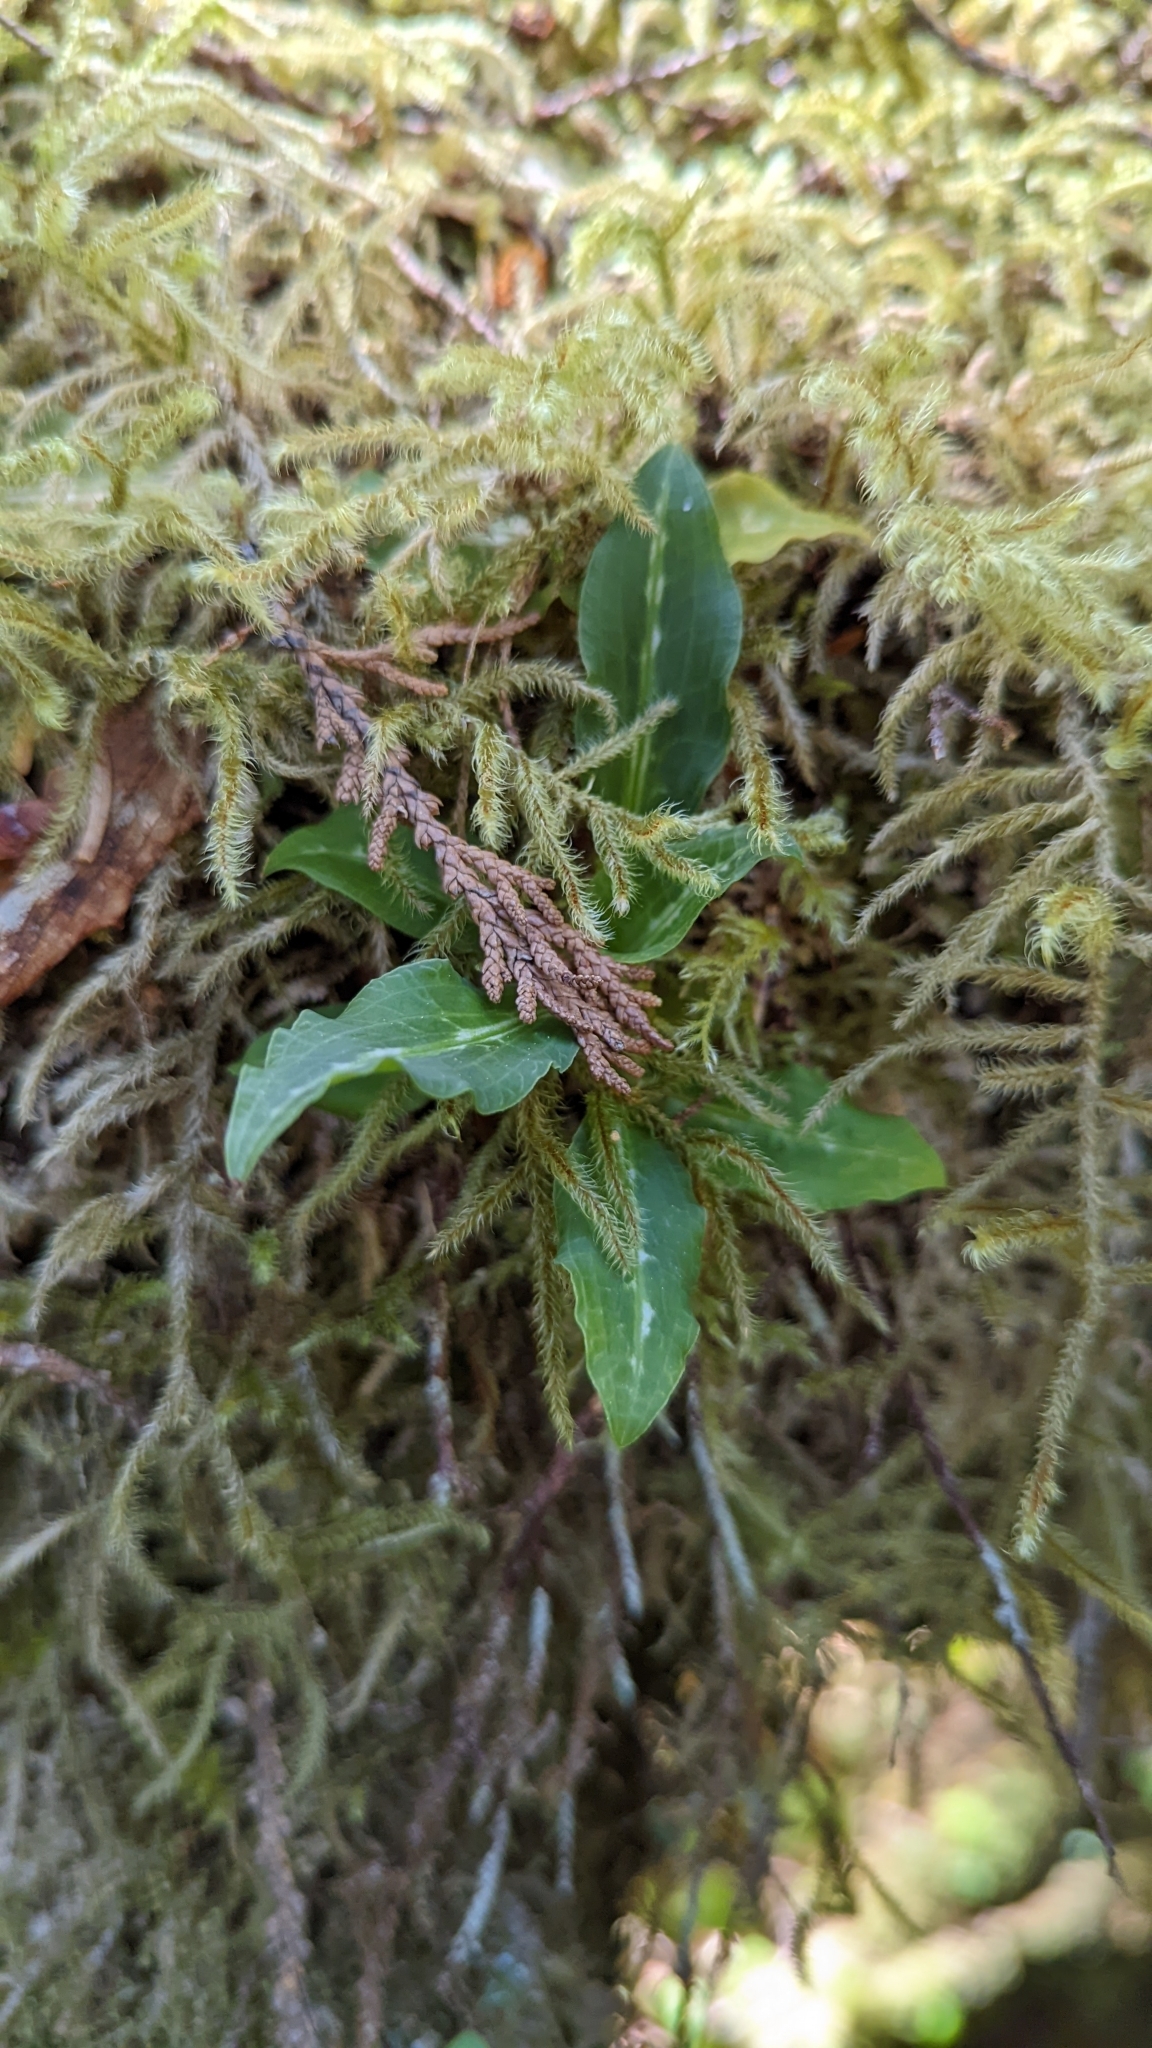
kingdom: Plantae
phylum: Tracheophyta
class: Liliopsida
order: Asparagales
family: Orchidaceae
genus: Goodyera
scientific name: Goodyera oblongifolia
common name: Giant rattlesnake-plantain
